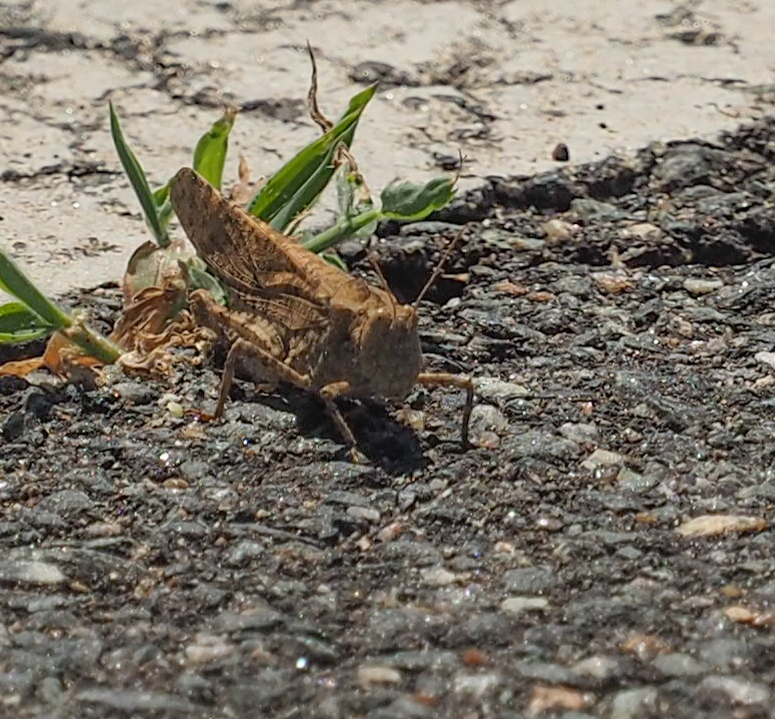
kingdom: Animalia
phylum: Arthropoda
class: Insecta
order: Orthoptera
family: Acrididae
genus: Dissosteira
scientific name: Dissosteira carolina
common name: Carolina grasshopper
